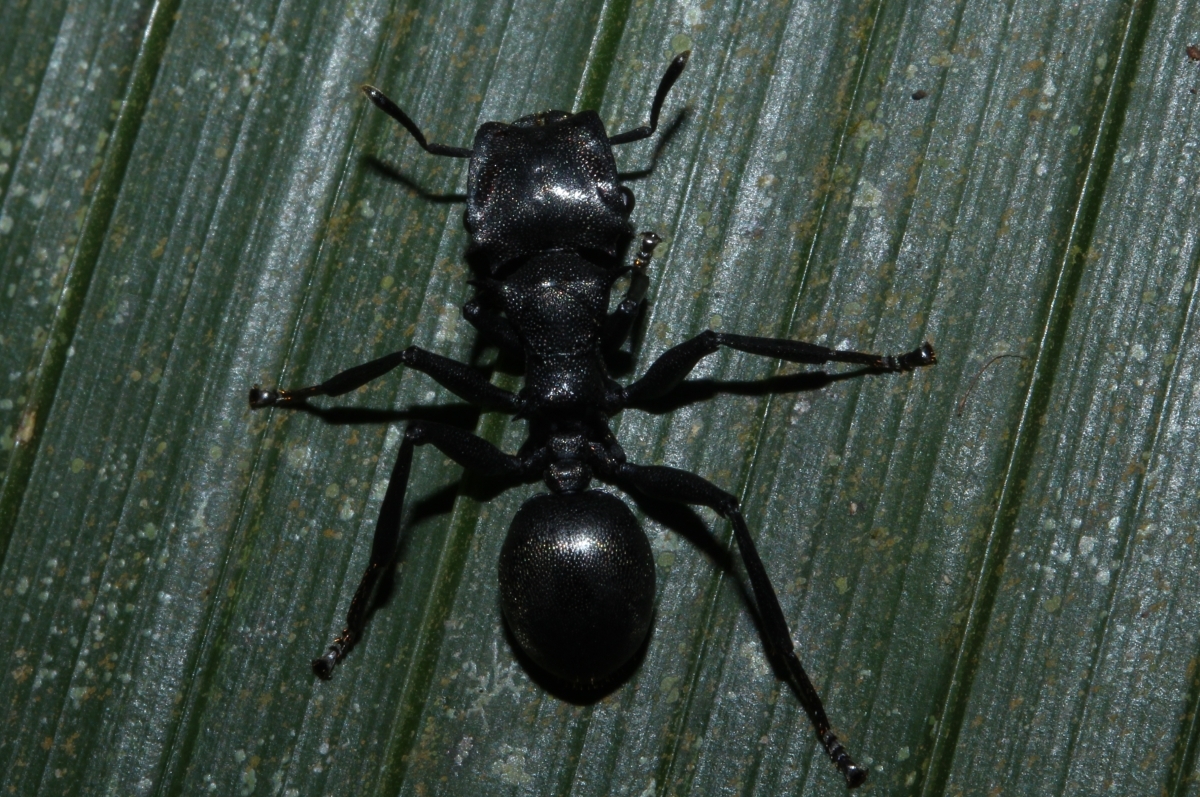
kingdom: Animalia
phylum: Arthropoda
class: Insecta
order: Hymenoptera
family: Formicidae
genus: Cephalotes
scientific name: Cephalotes atratus
